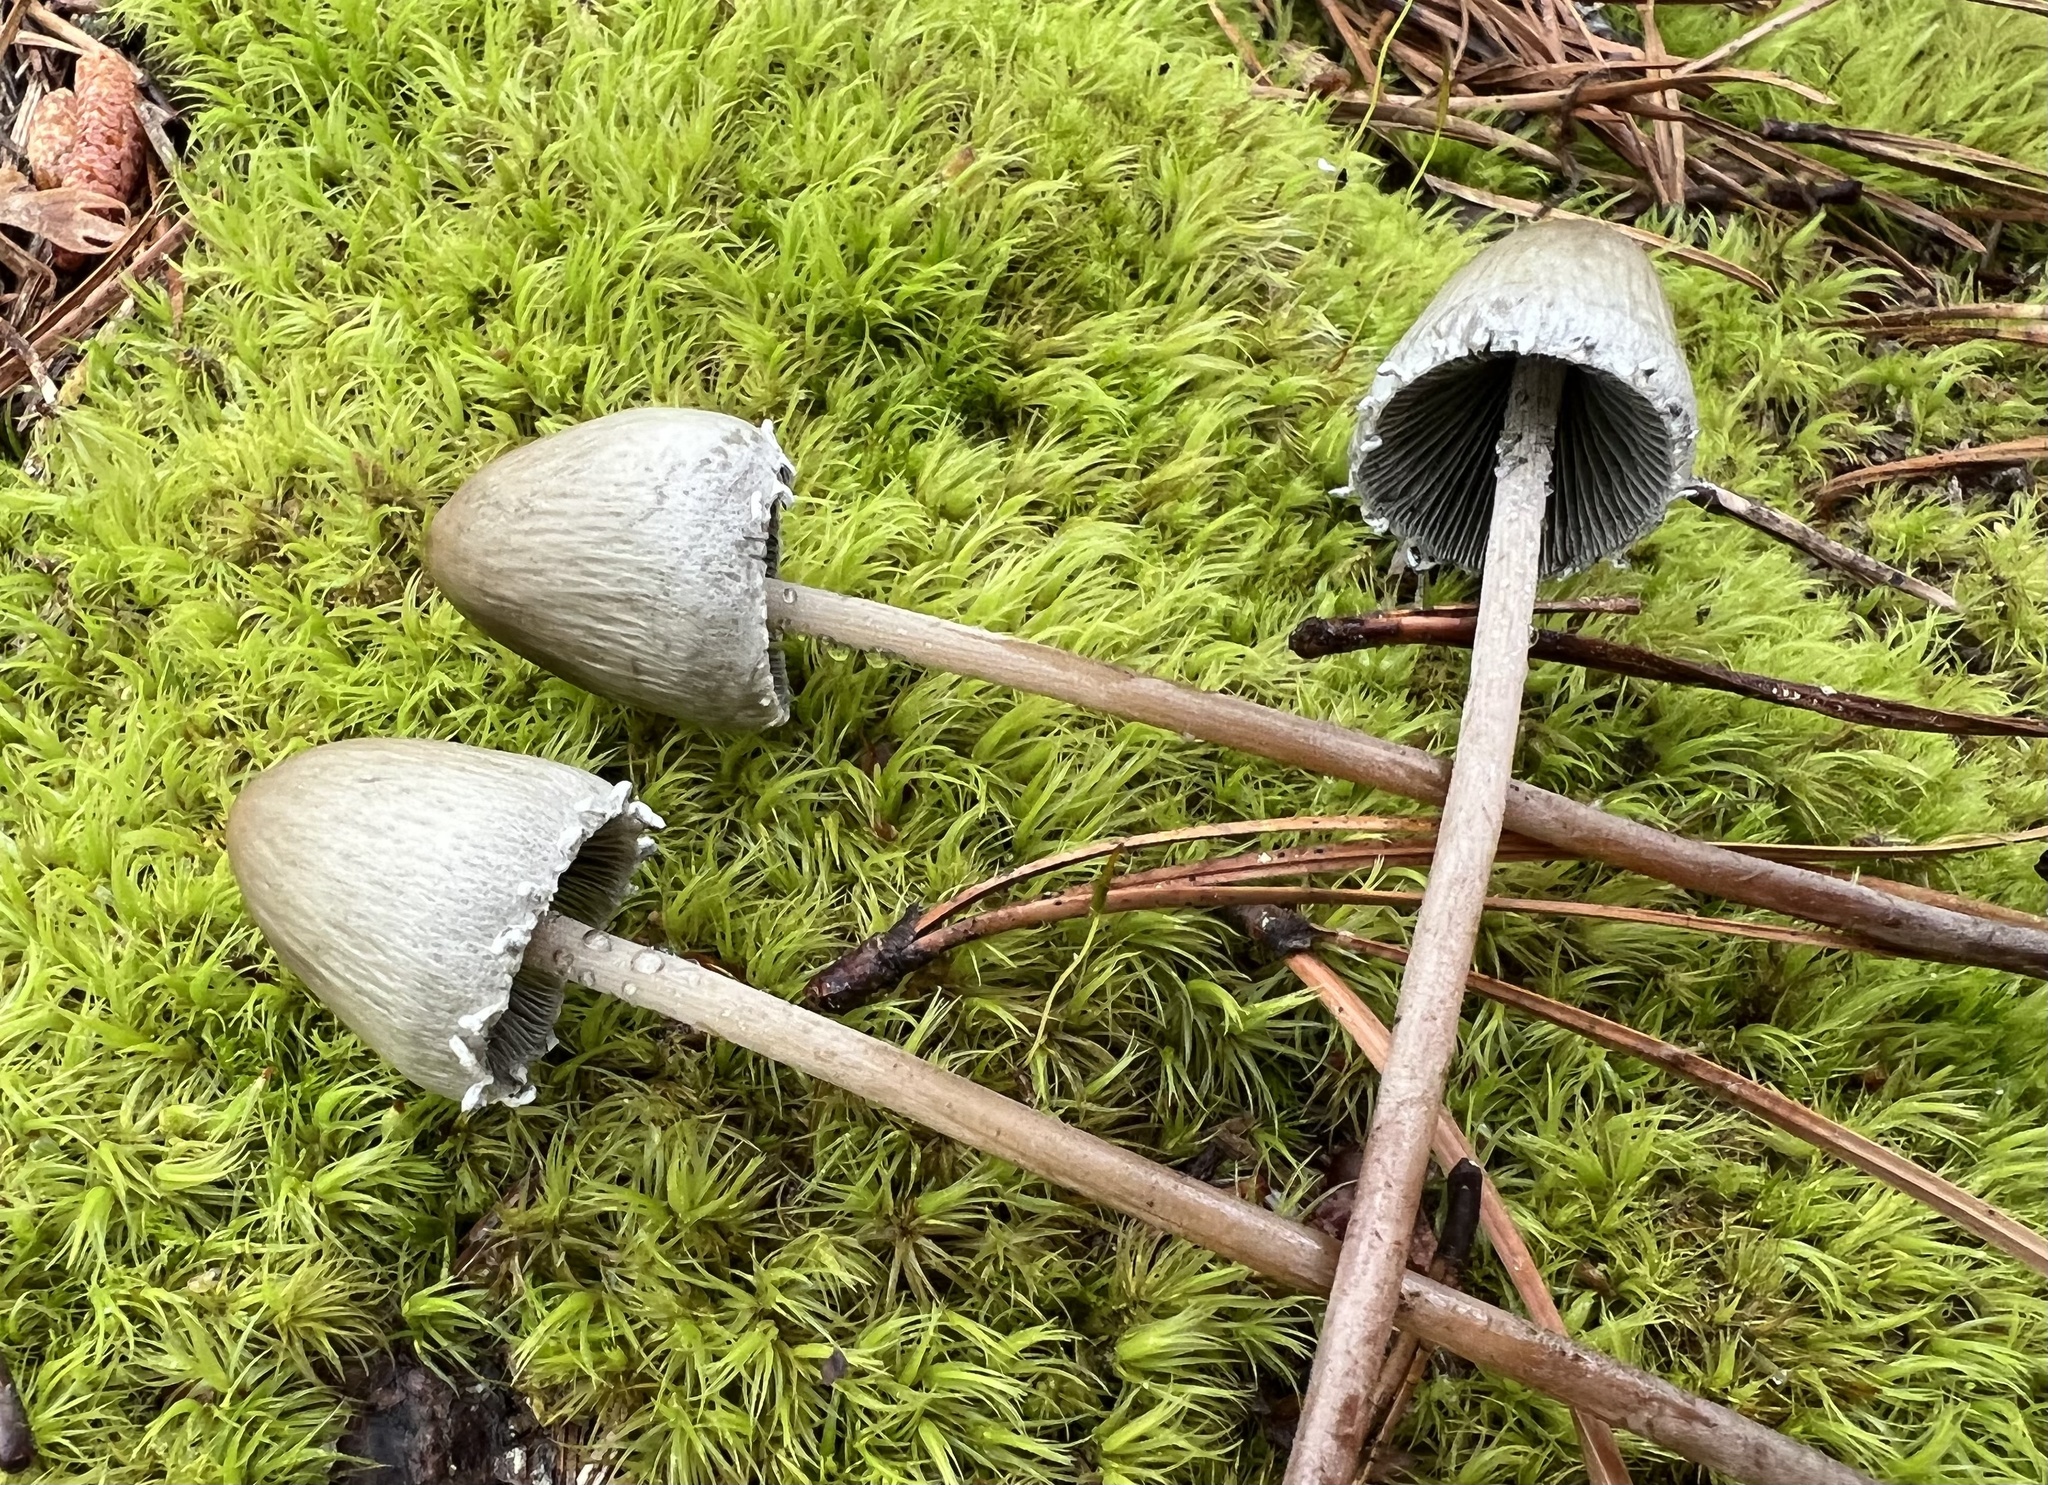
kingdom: Fungi
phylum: Basidiomycota
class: Agaricomycetes
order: Agaricales
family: Bolbitiaceae
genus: Panaeolus
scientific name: Panaeolus papilionaceus
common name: Petticoat mottlegill
